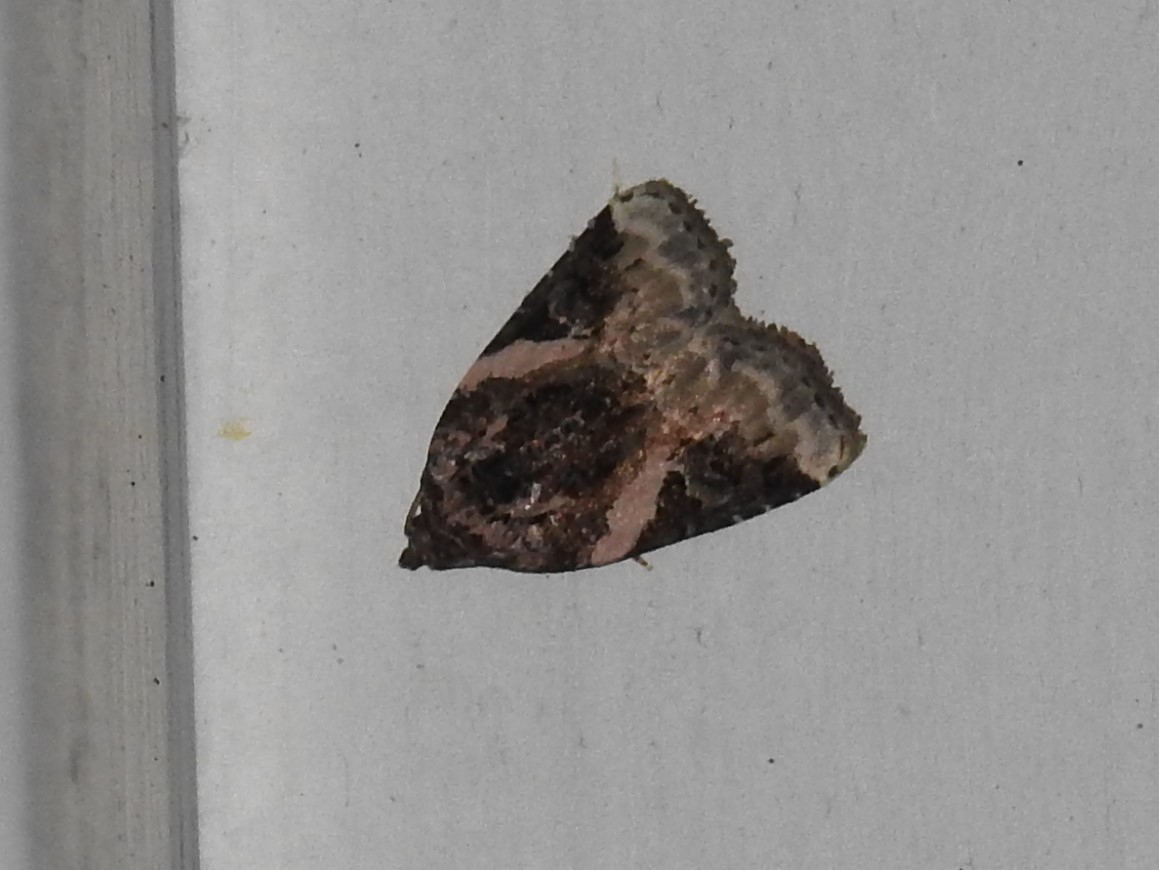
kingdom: Animalia
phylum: Arthropoda
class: Insecta
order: Lepidoptera
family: Noctuidae
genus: Pseudeustrotia
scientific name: Pseudeustrotia carneola
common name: Pink-barred lithacodia moth
